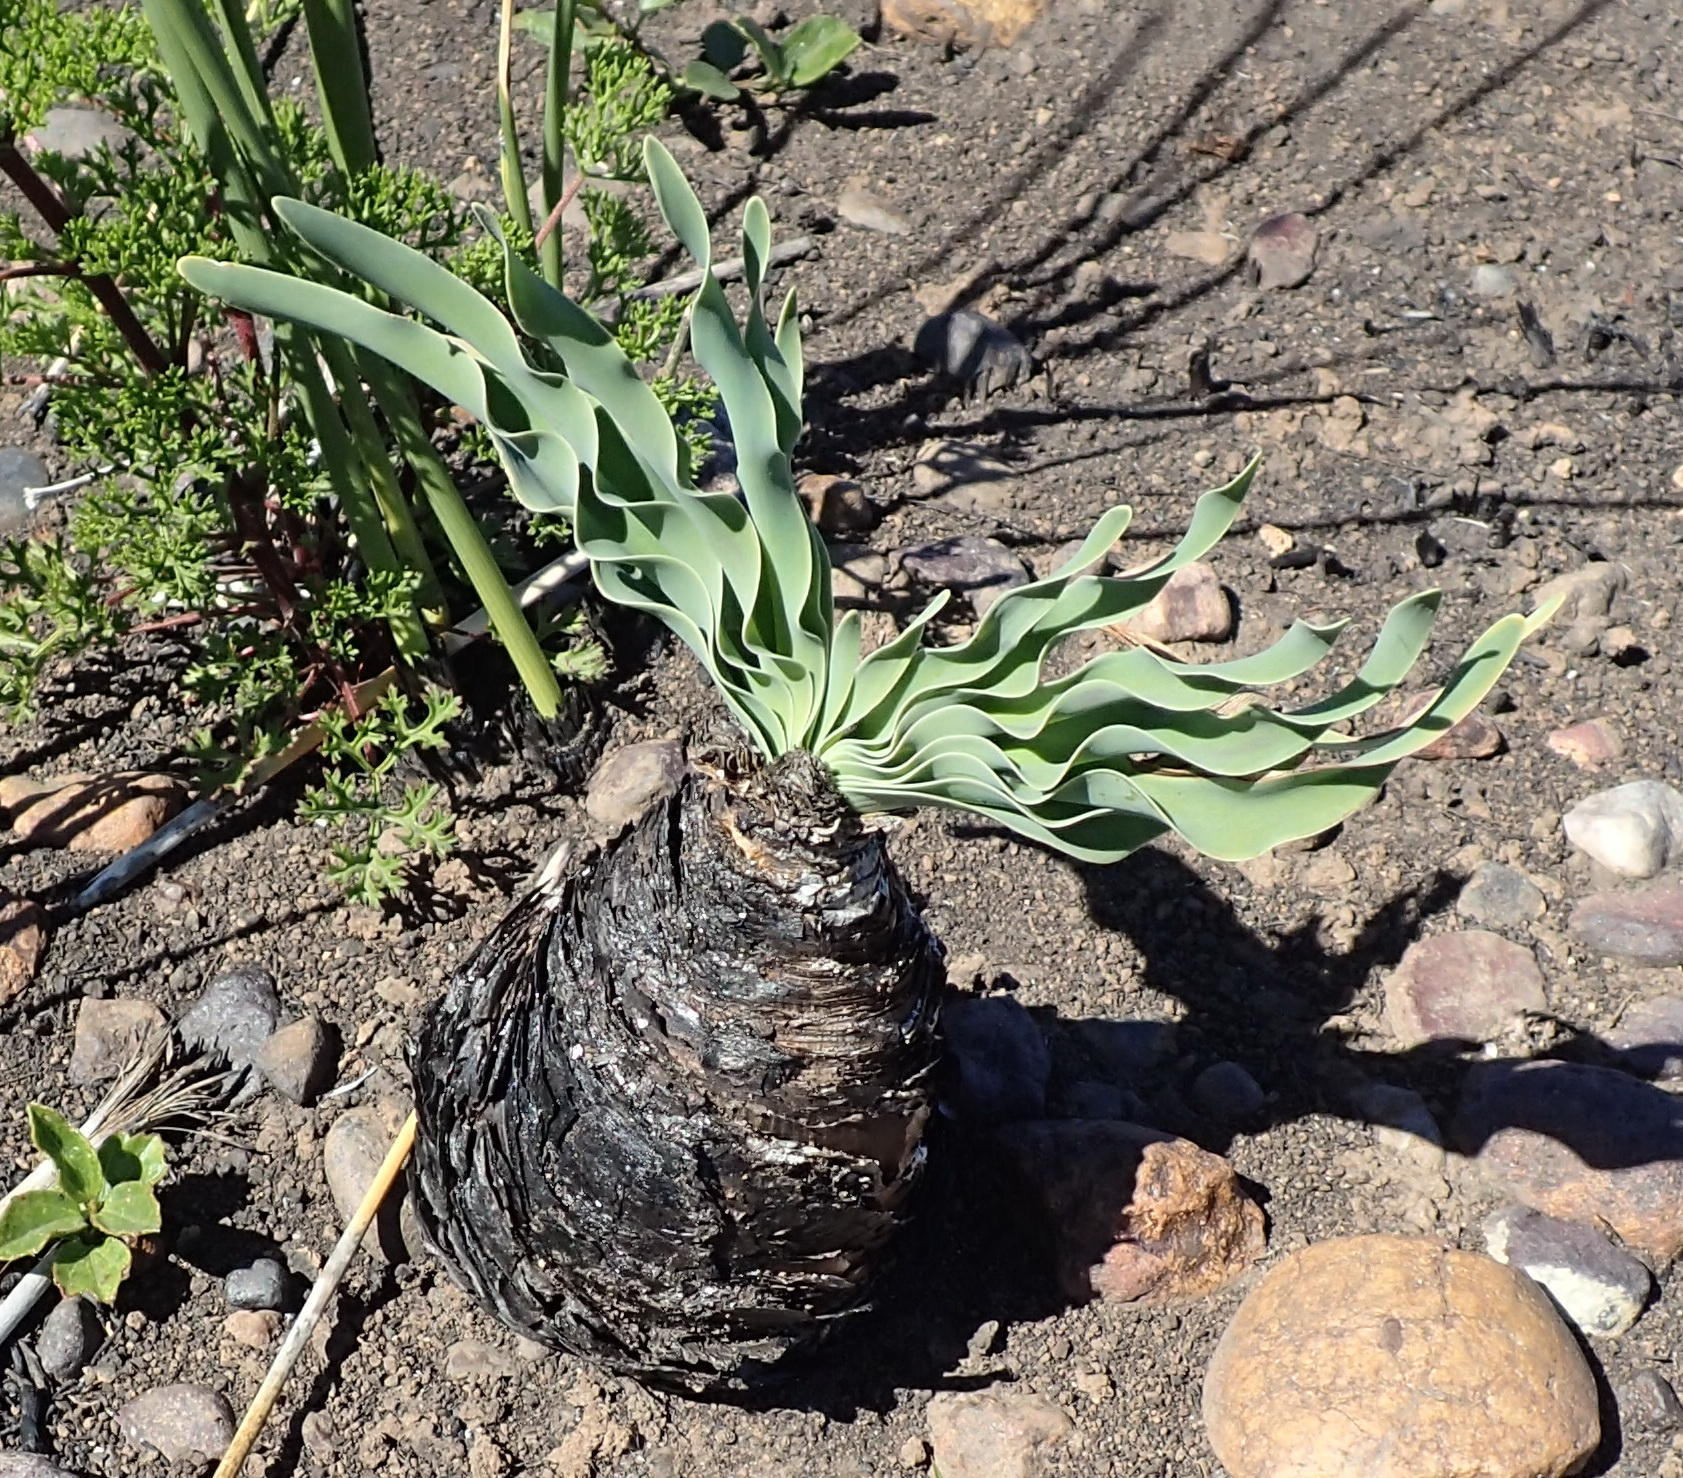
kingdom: Plantae
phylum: Tracheophyta
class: Liliopsida
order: Asparagales
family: Amaryllidaceae
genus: Boophone
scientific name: Boophone disticha
